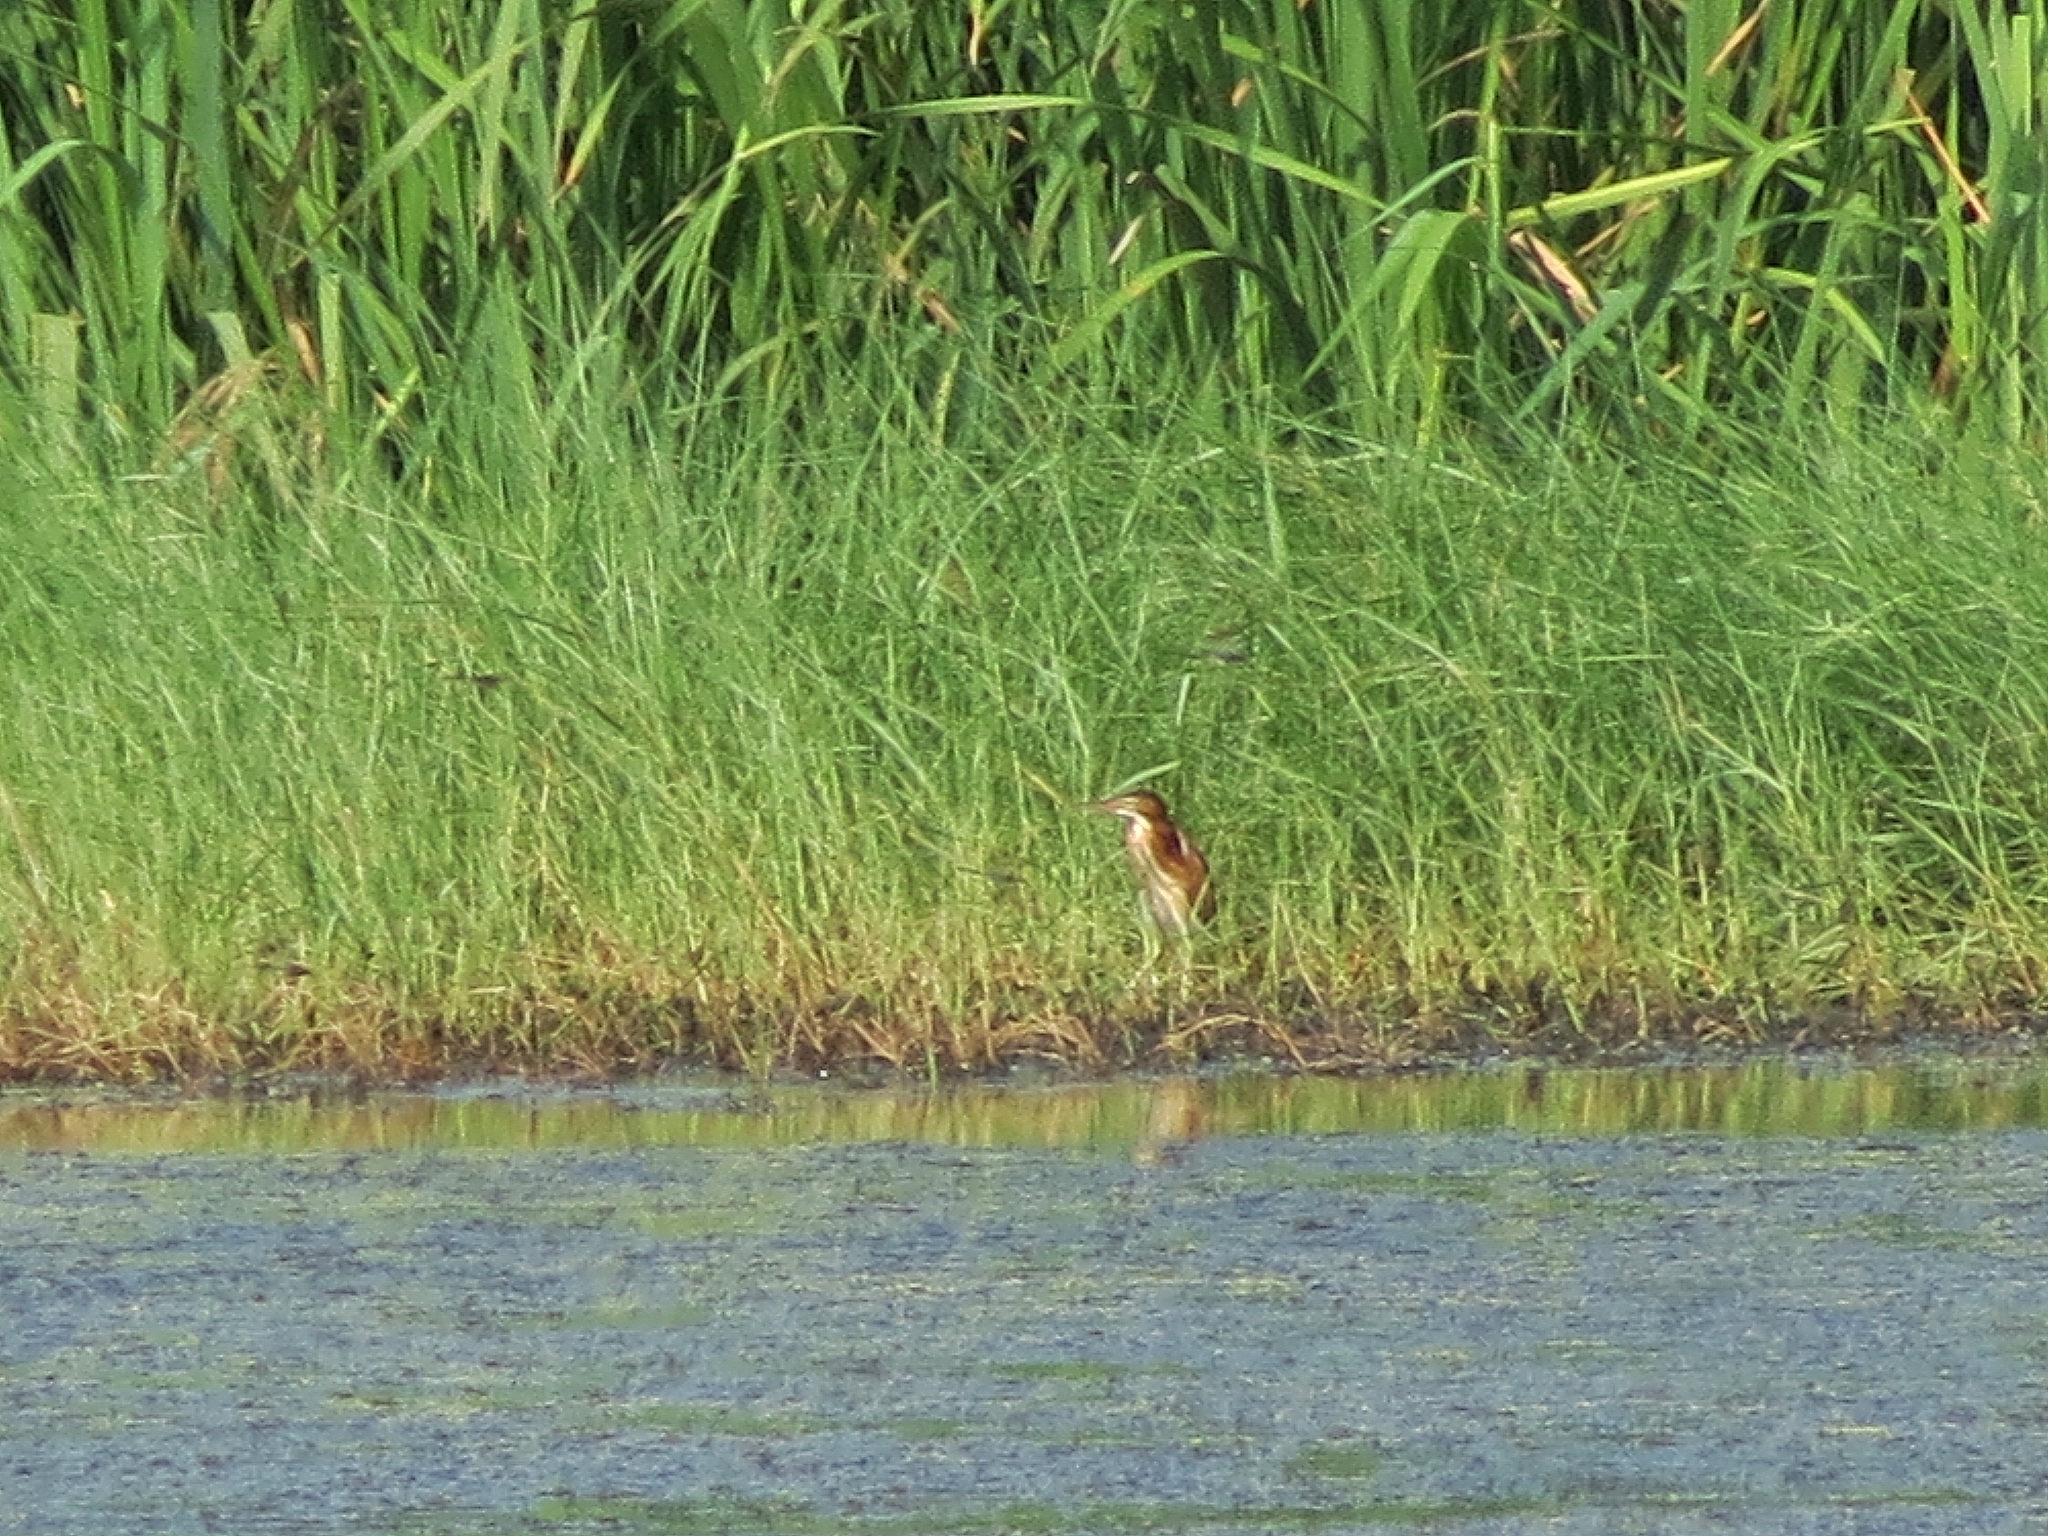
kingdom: Animalia
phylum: Chordata
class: Aves
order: Pelecaniformes
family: Ardeidae
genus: Ixobrychus
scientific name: Ixobrychus exilis
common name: Least bittern
